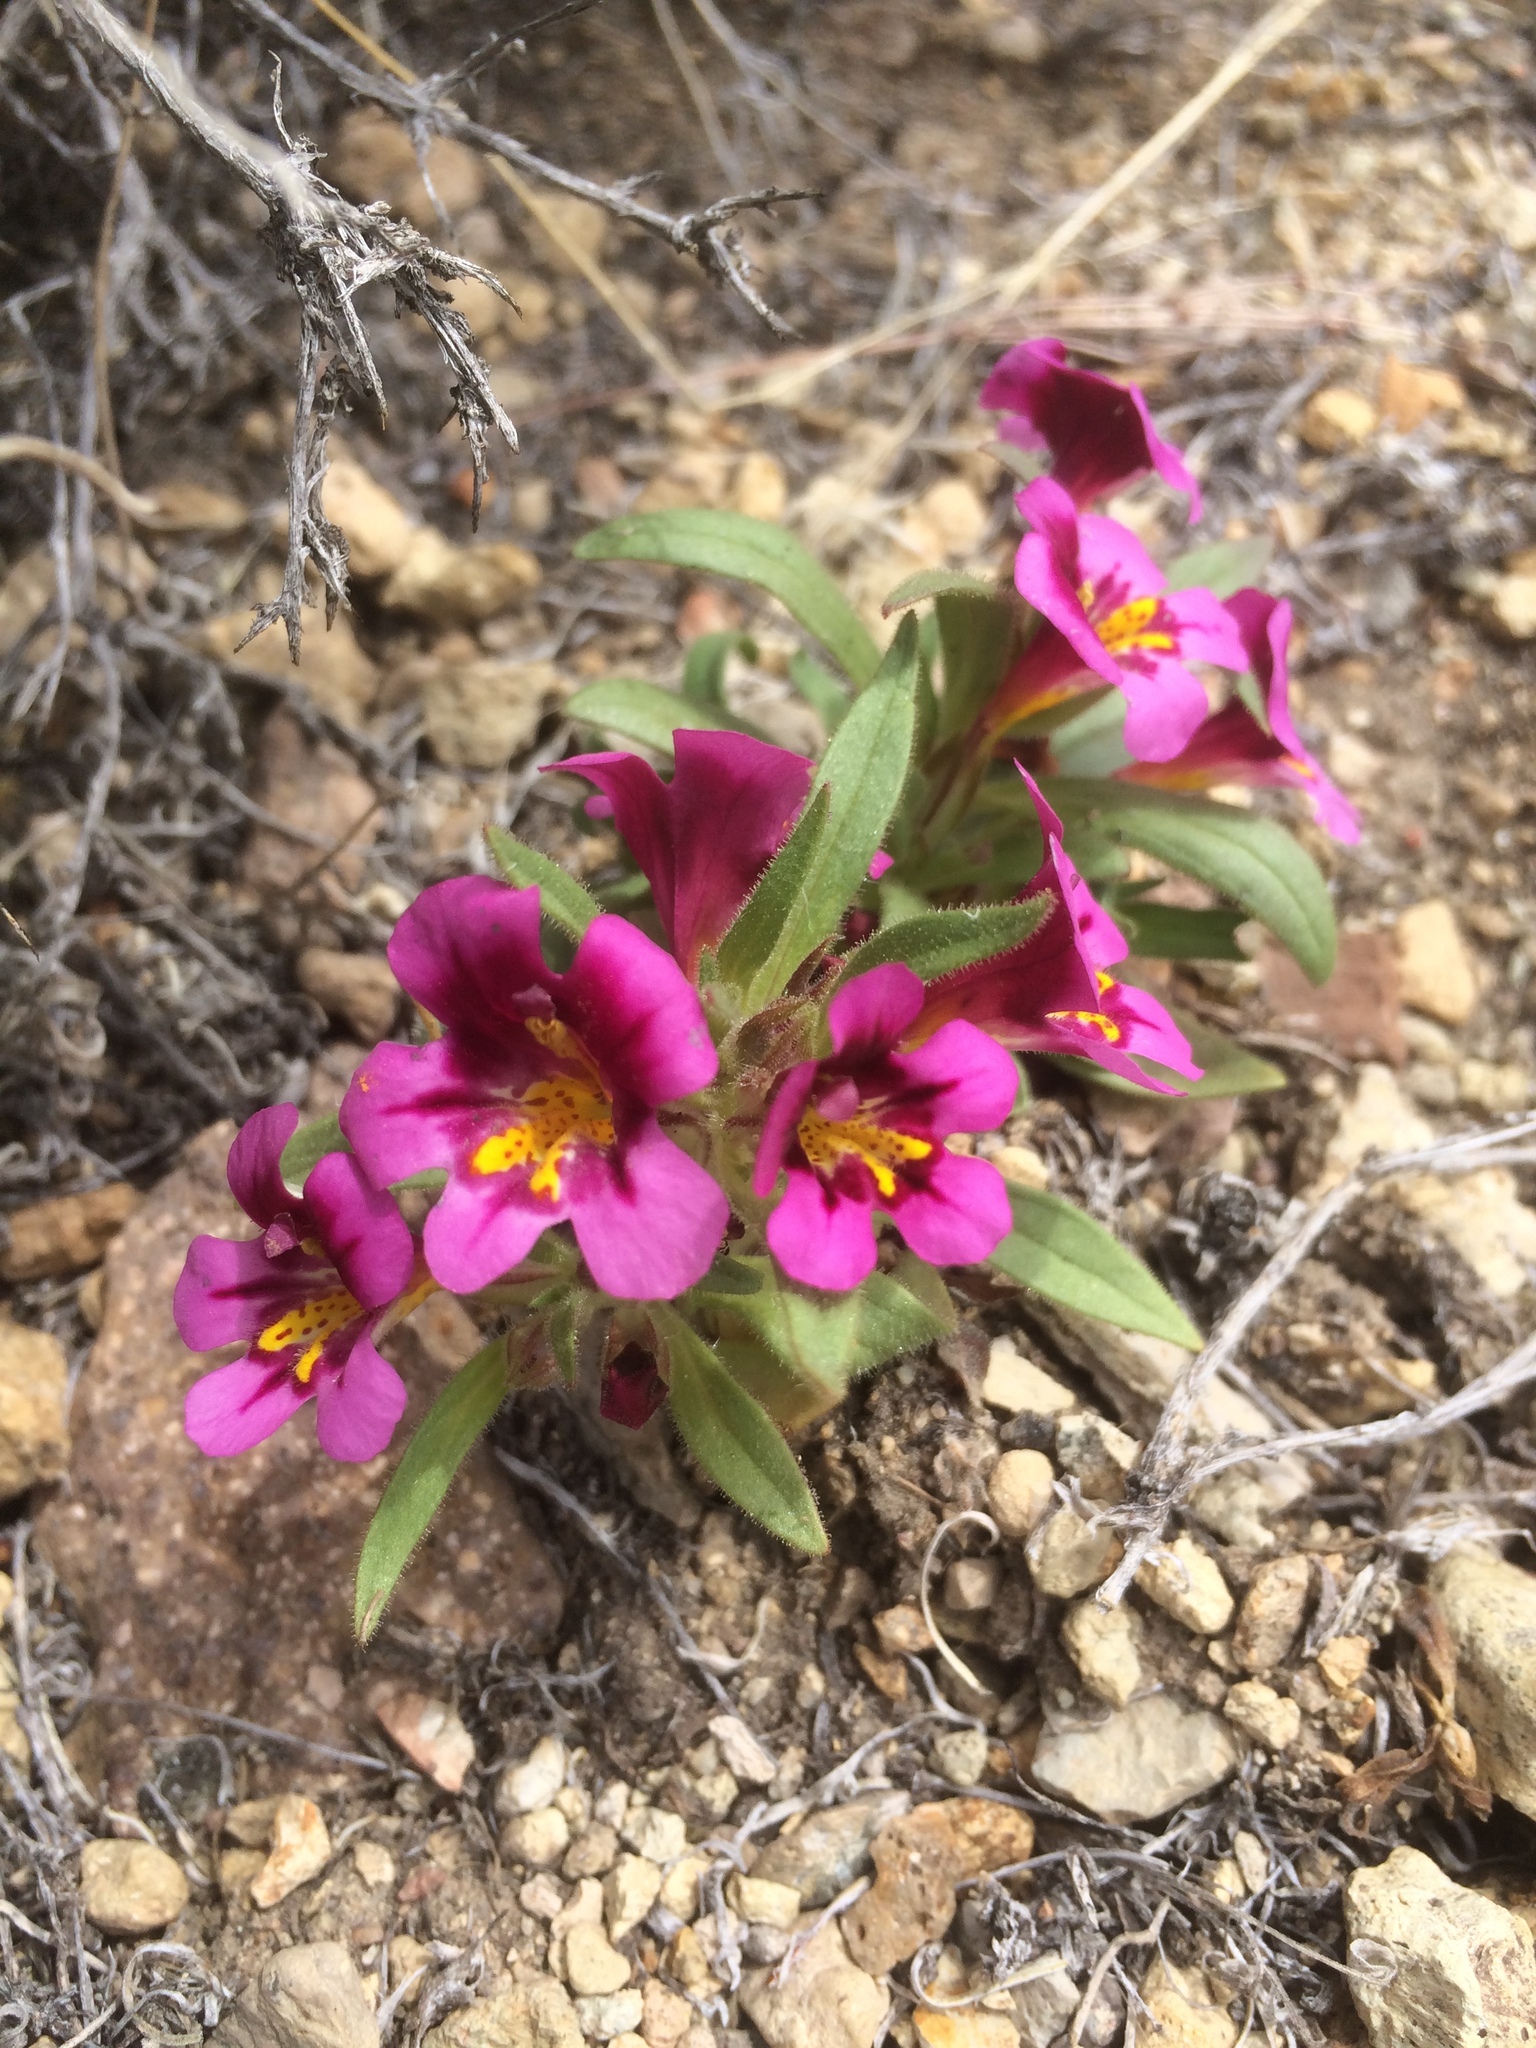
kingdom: Plantae
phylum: Tracheophyta
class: Magnoliopsida
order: Lamiales
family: Phrymaceae
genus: Diplacus
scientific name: Diplacus mephiticus
